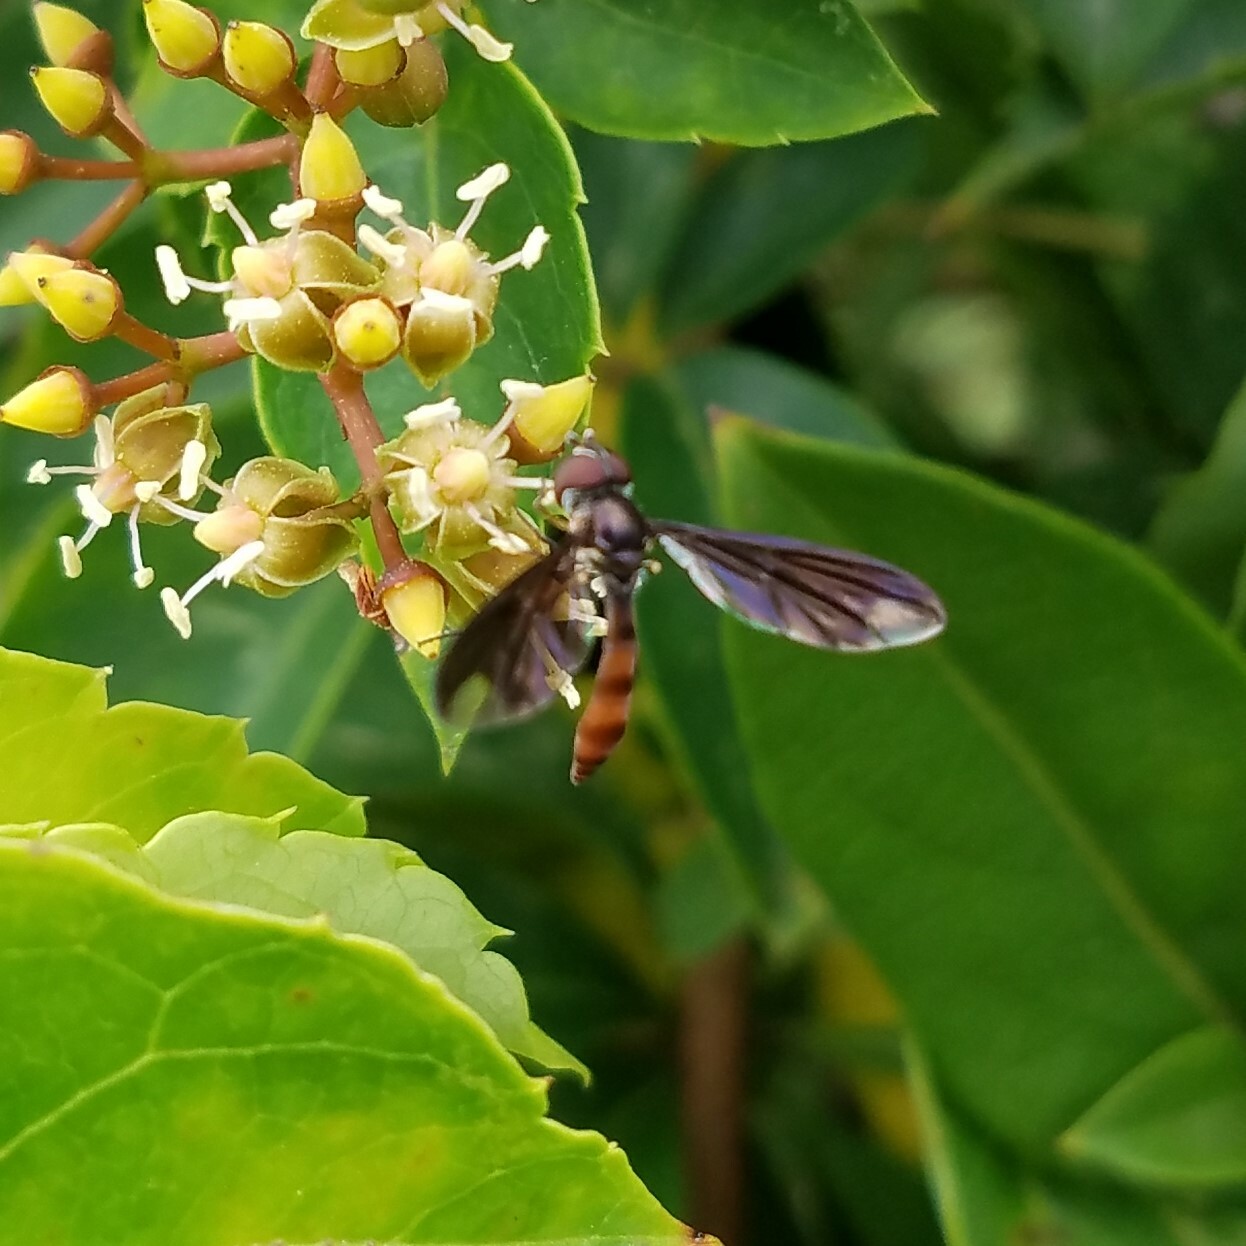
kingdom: Animalia
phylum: Arthropoda
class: Insecta
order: Diptera
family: Syrphidae
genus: Ocyptamus
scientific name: Ocyptamus fuscipennis
